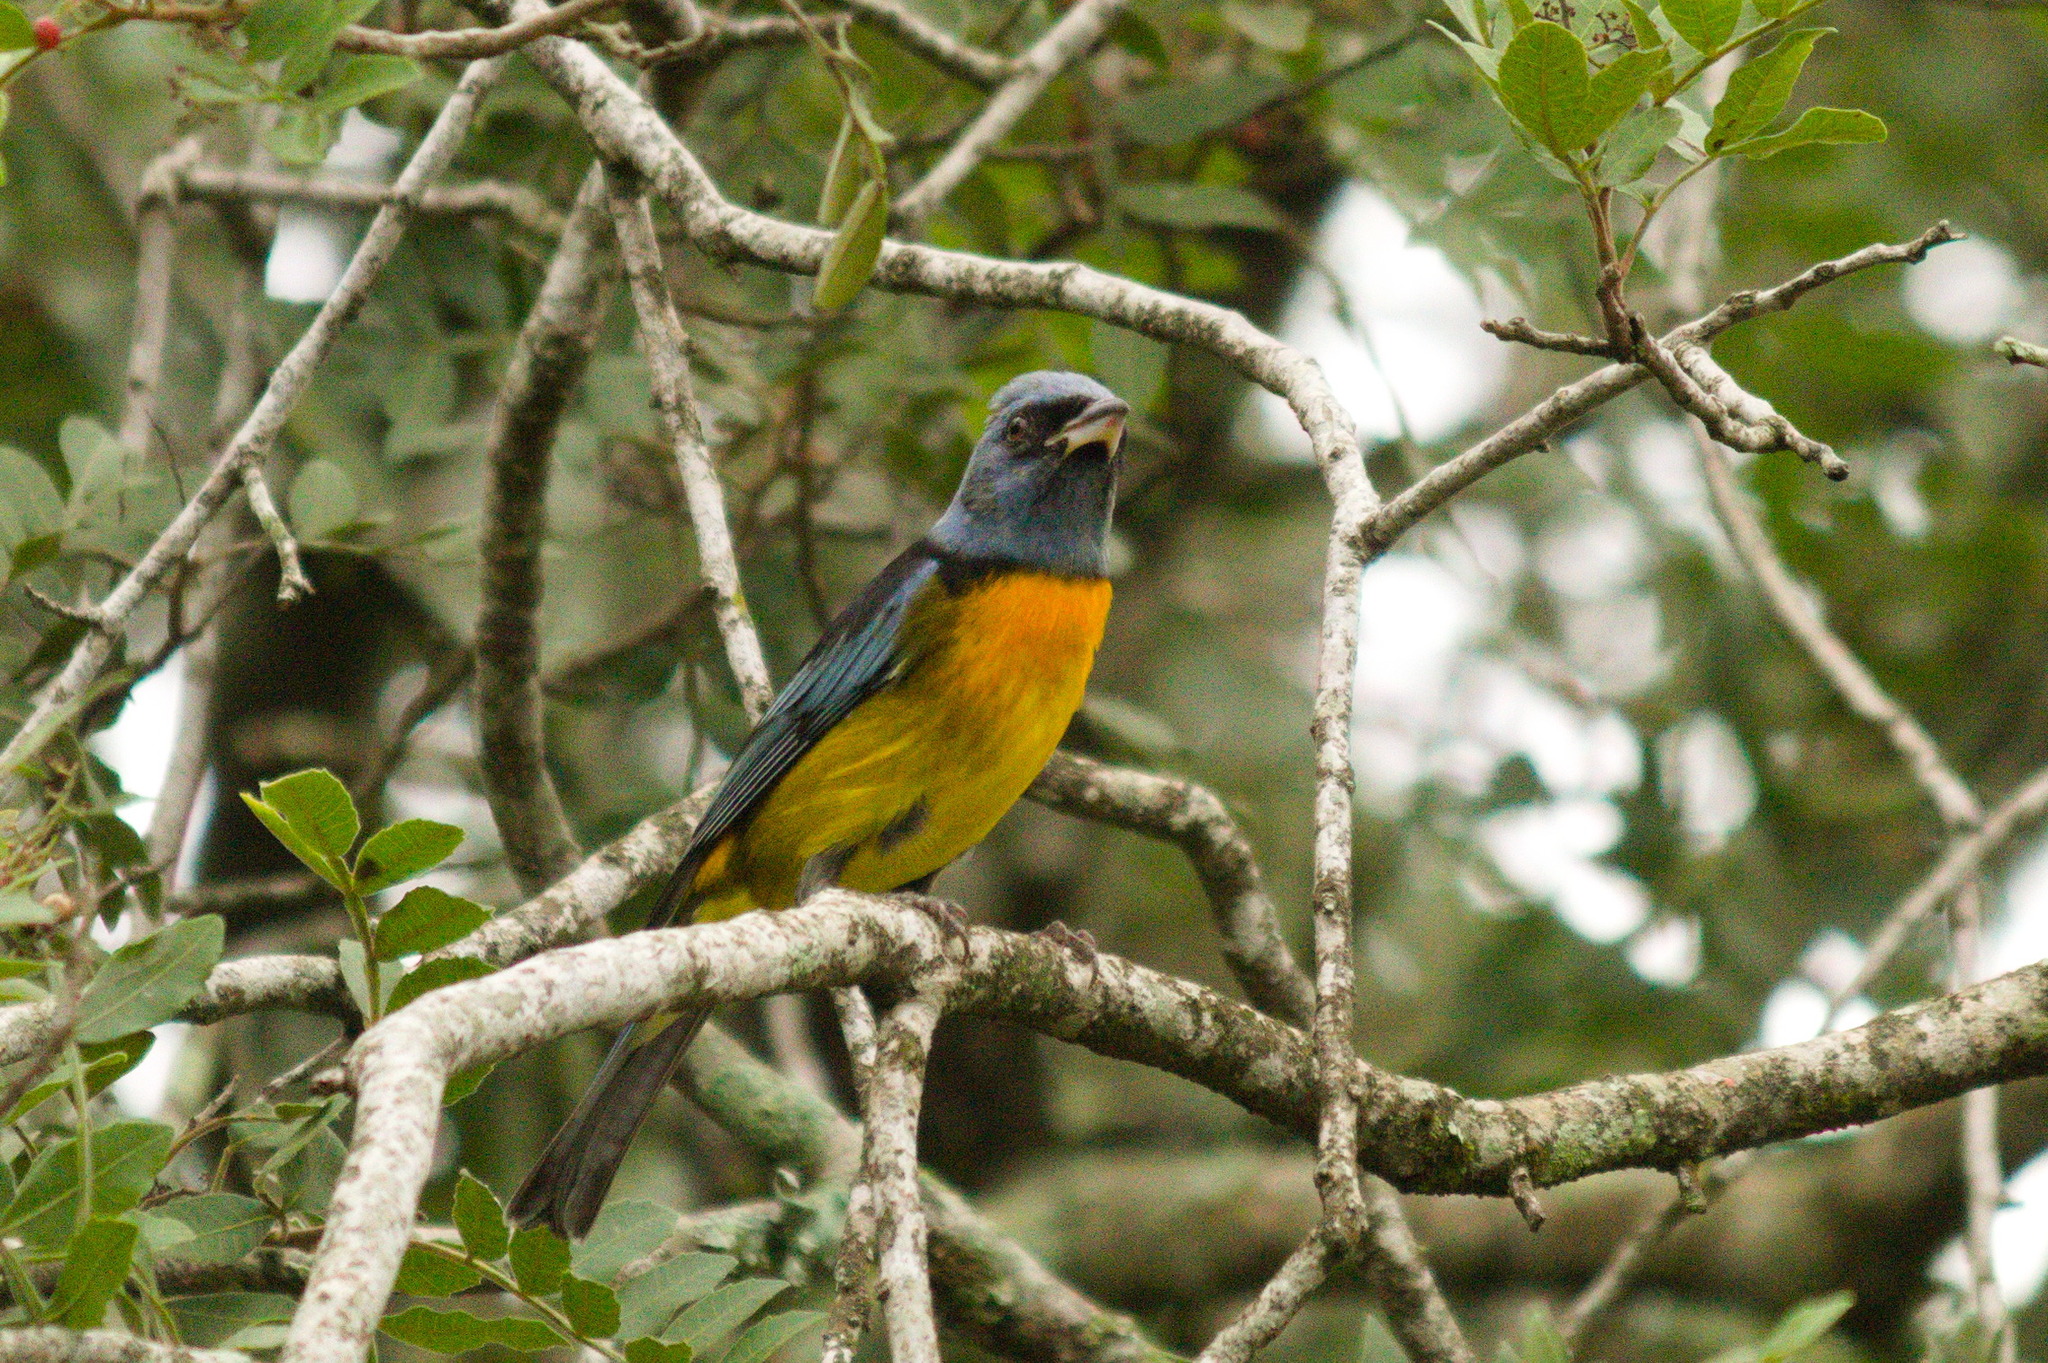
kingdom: Animalia
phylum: Chordata
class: Aves
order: Passeriformes
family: Thraupidae
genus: Rauenia
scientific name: Rauenia bonariensis
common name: Blue-and-yellow tanager
